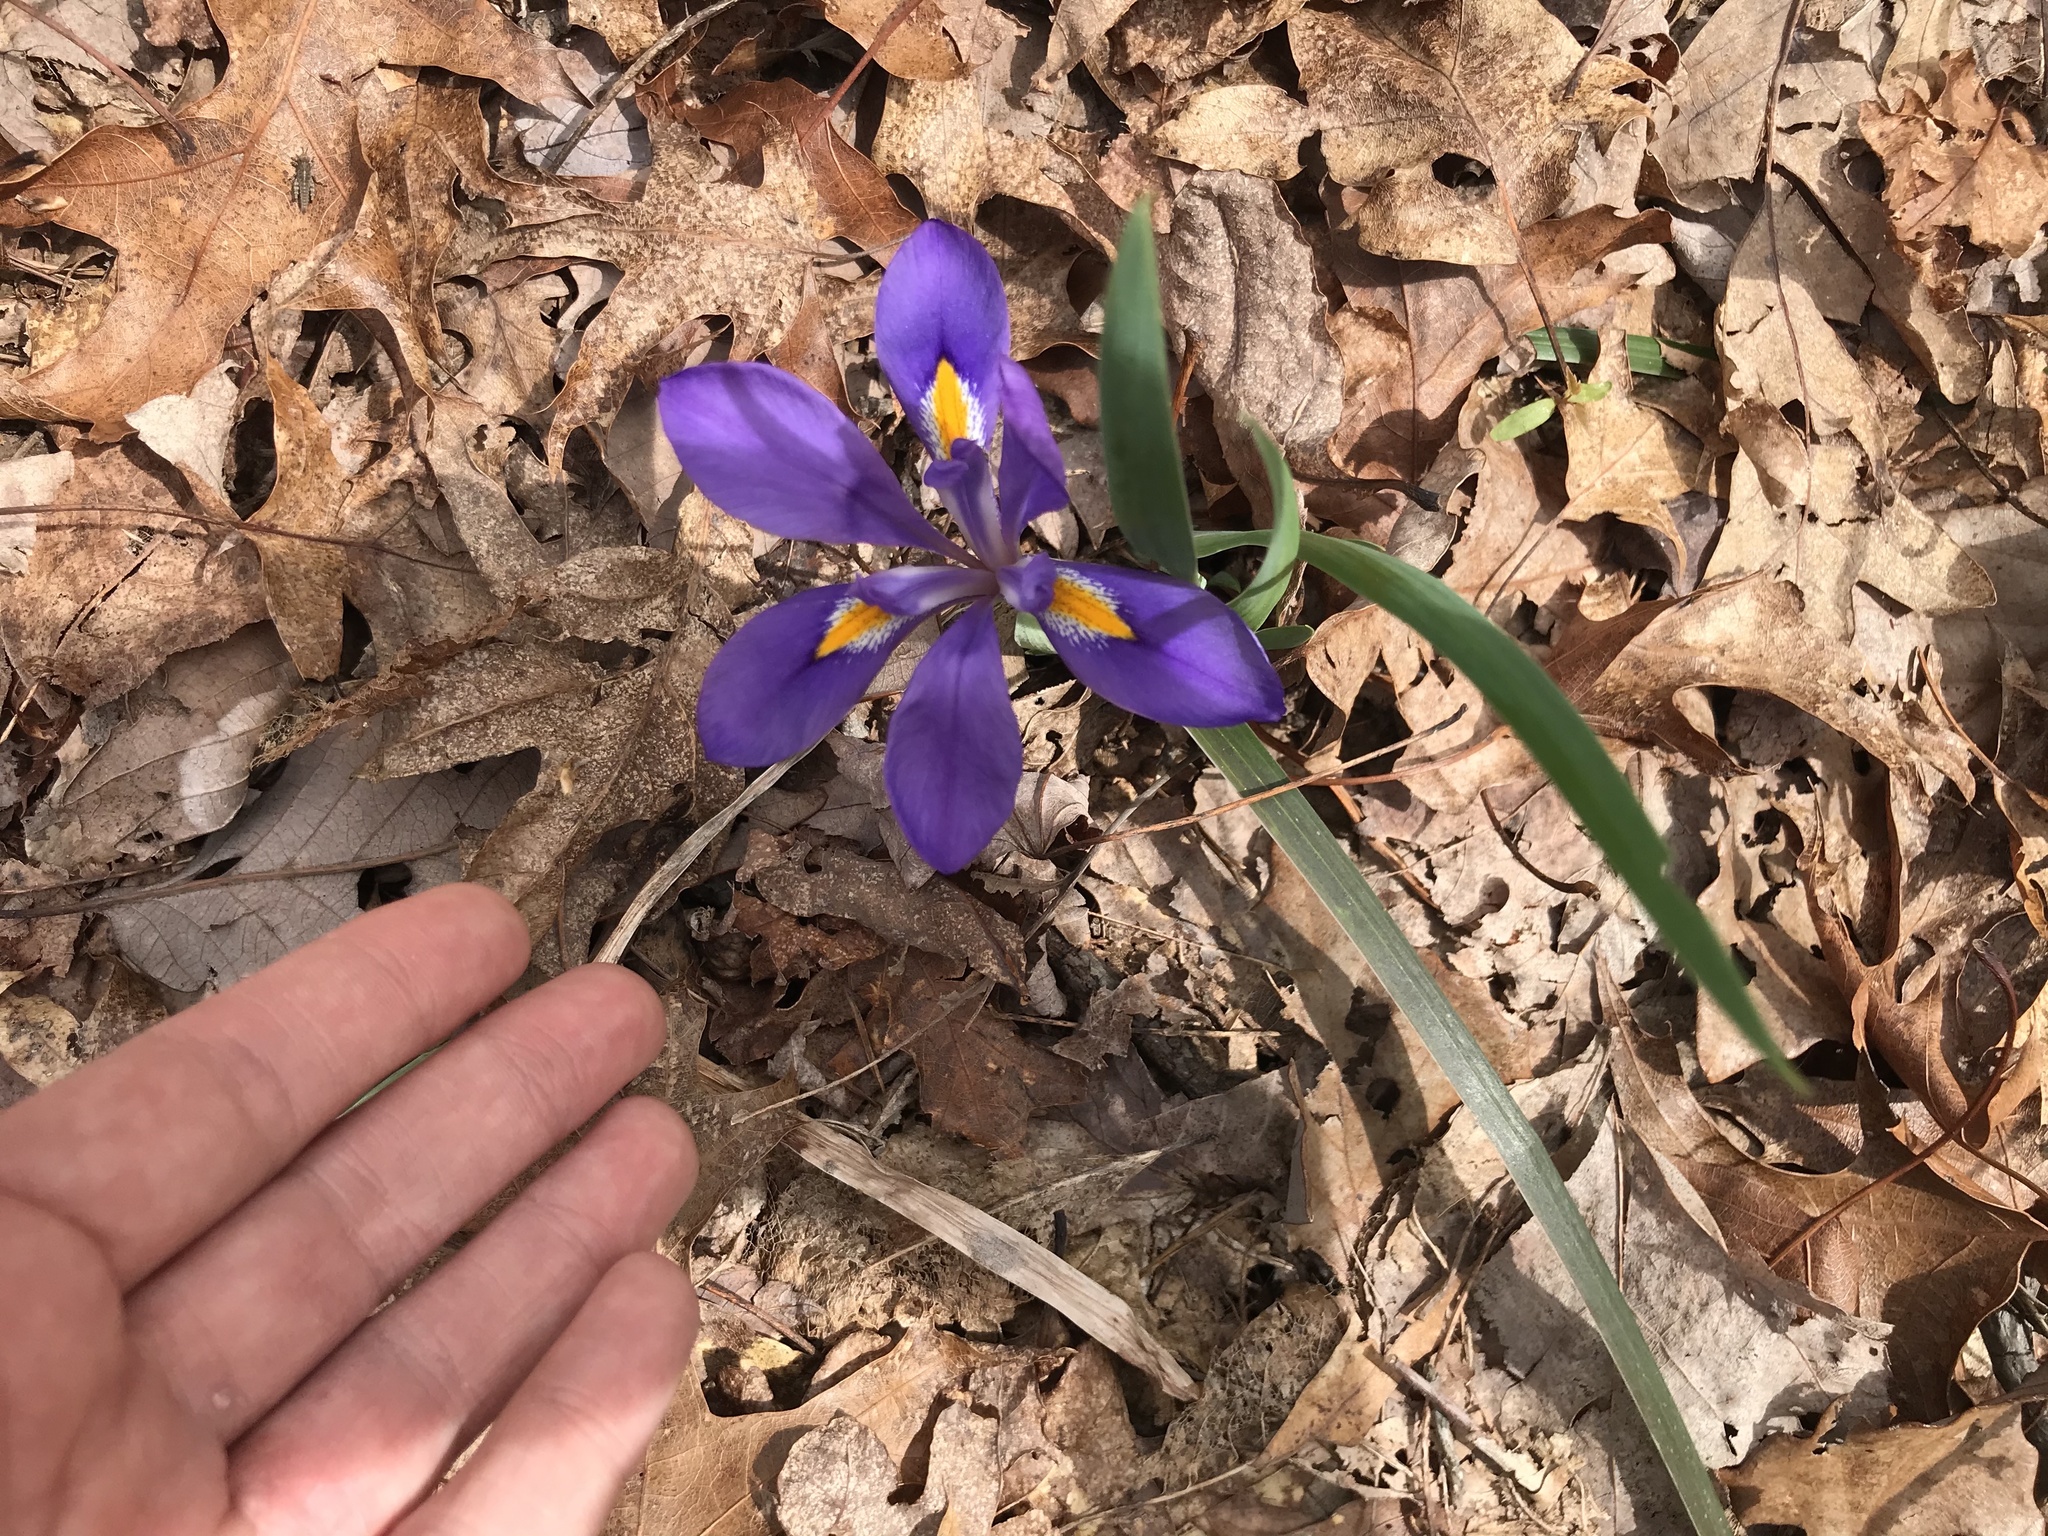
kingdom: Plantae
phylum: Tracheophyta
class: Liliopsida
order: Asparagales
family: Iridaceae
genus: Iris
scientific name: Iris verna
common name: Dwarf iris
